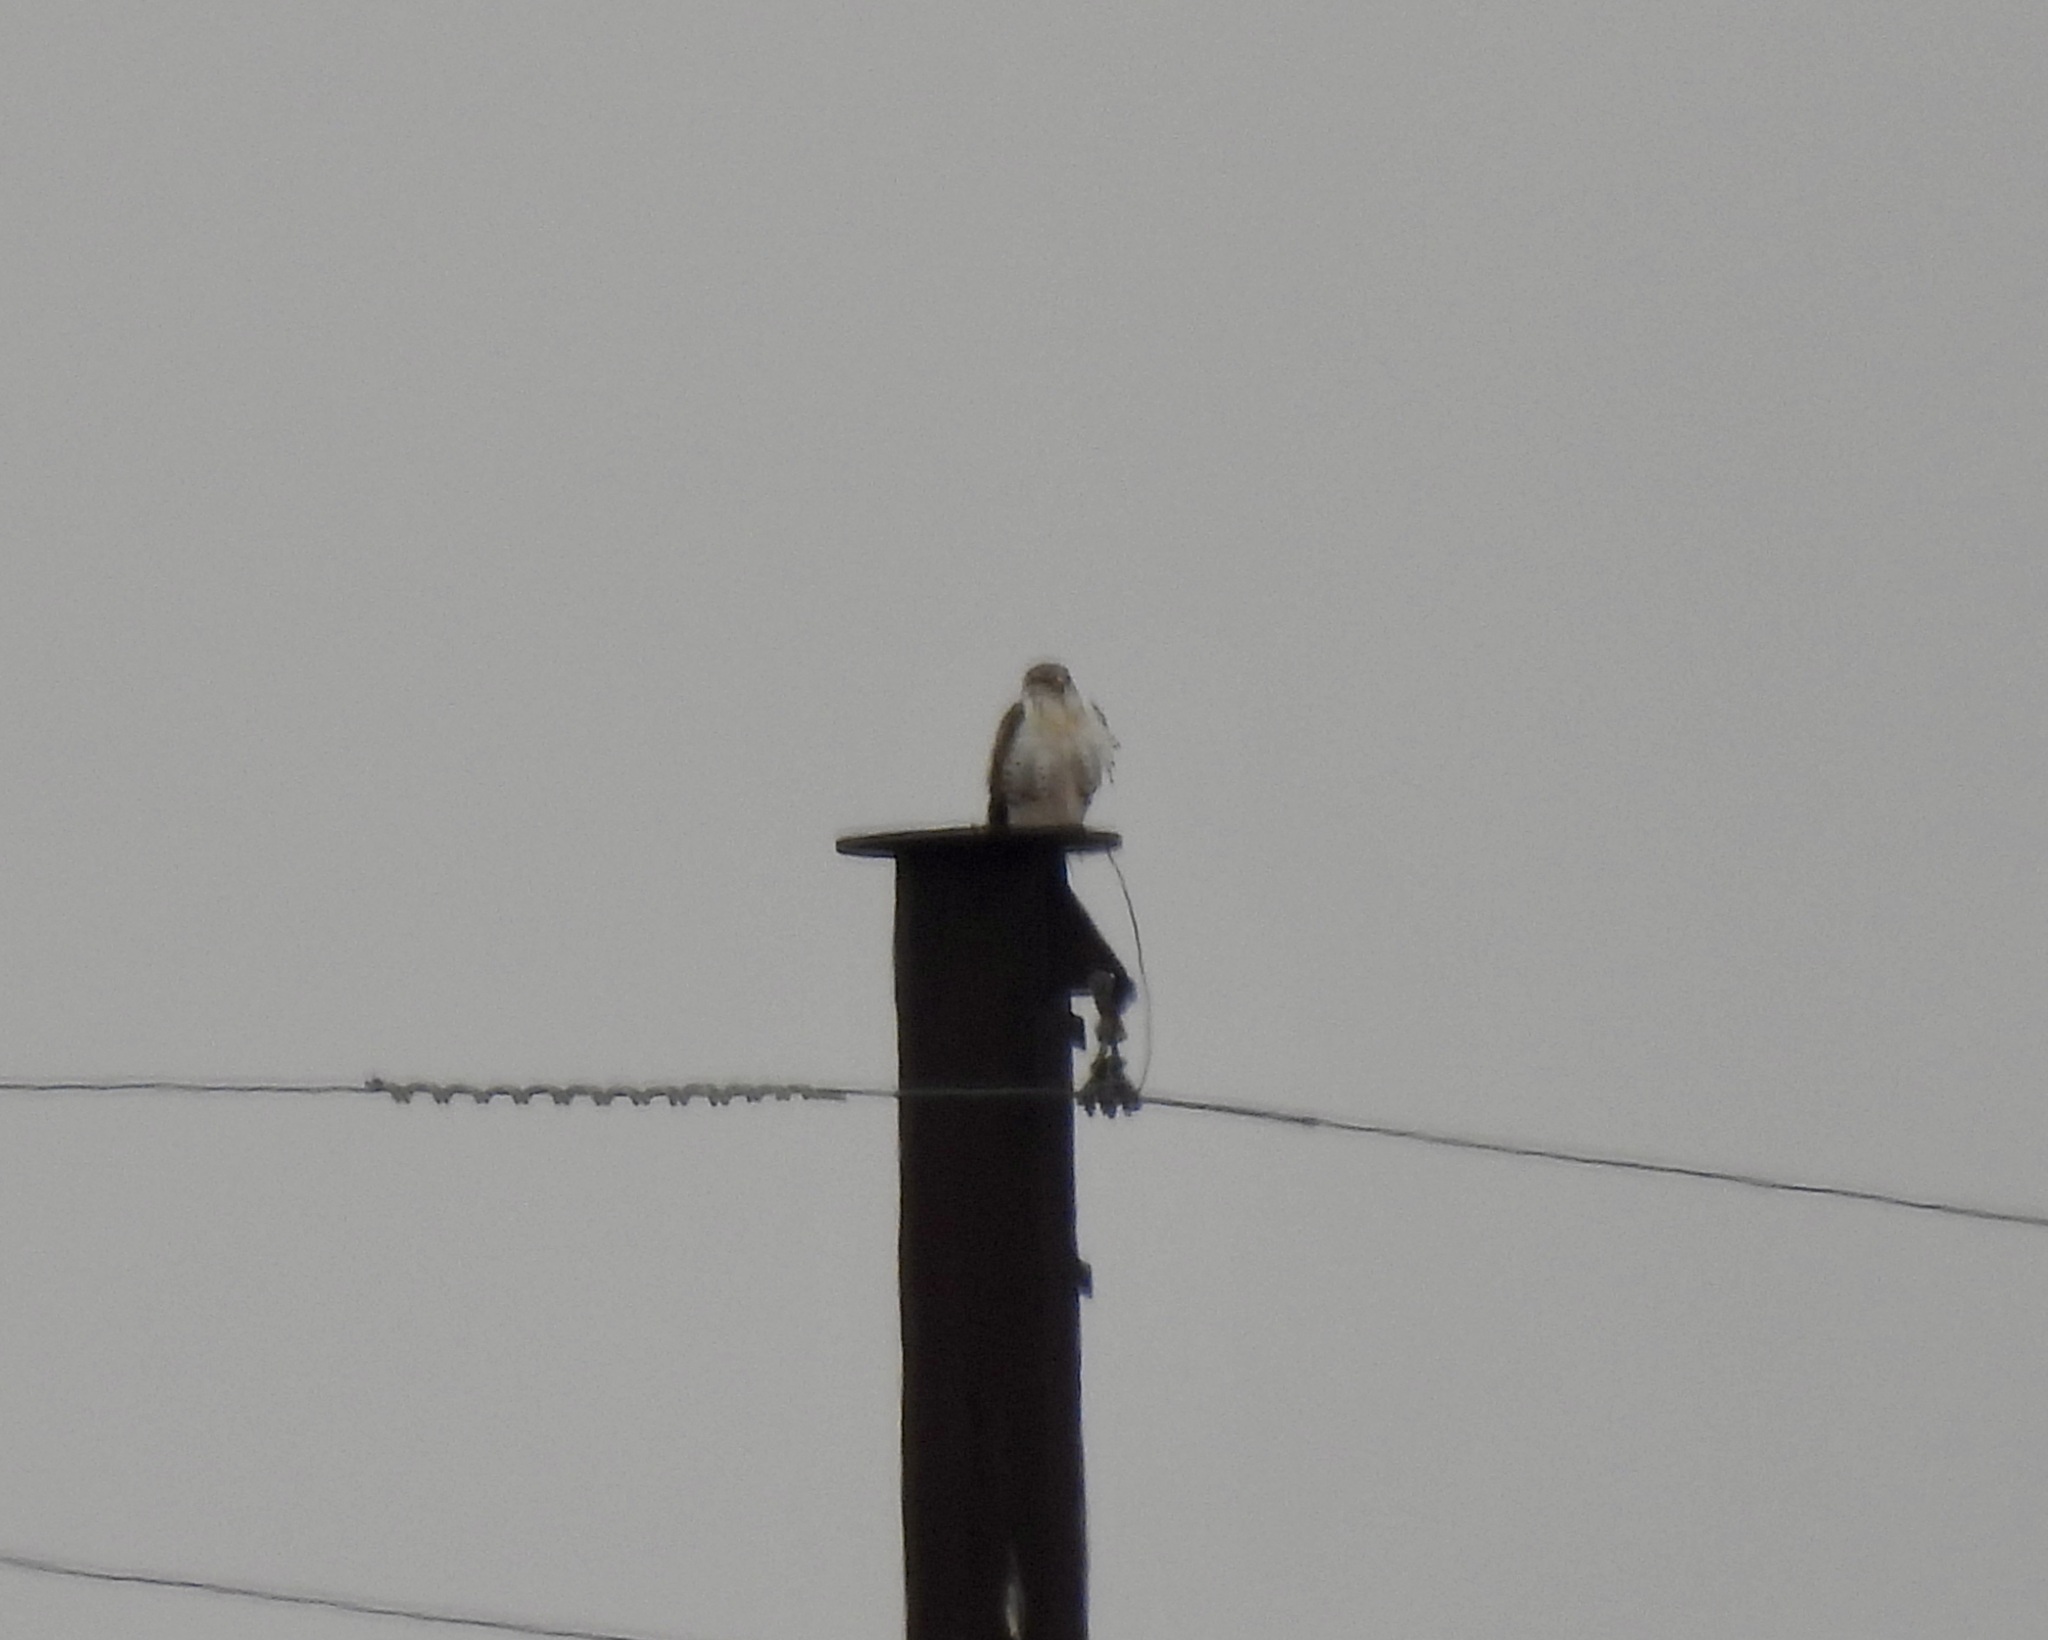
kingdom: Animalia
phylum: Chordata
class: Aves
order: Accipitriformes
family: Accipitridae
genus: Buteo
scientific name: Buteo regalis
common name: Ferruginous hawk
